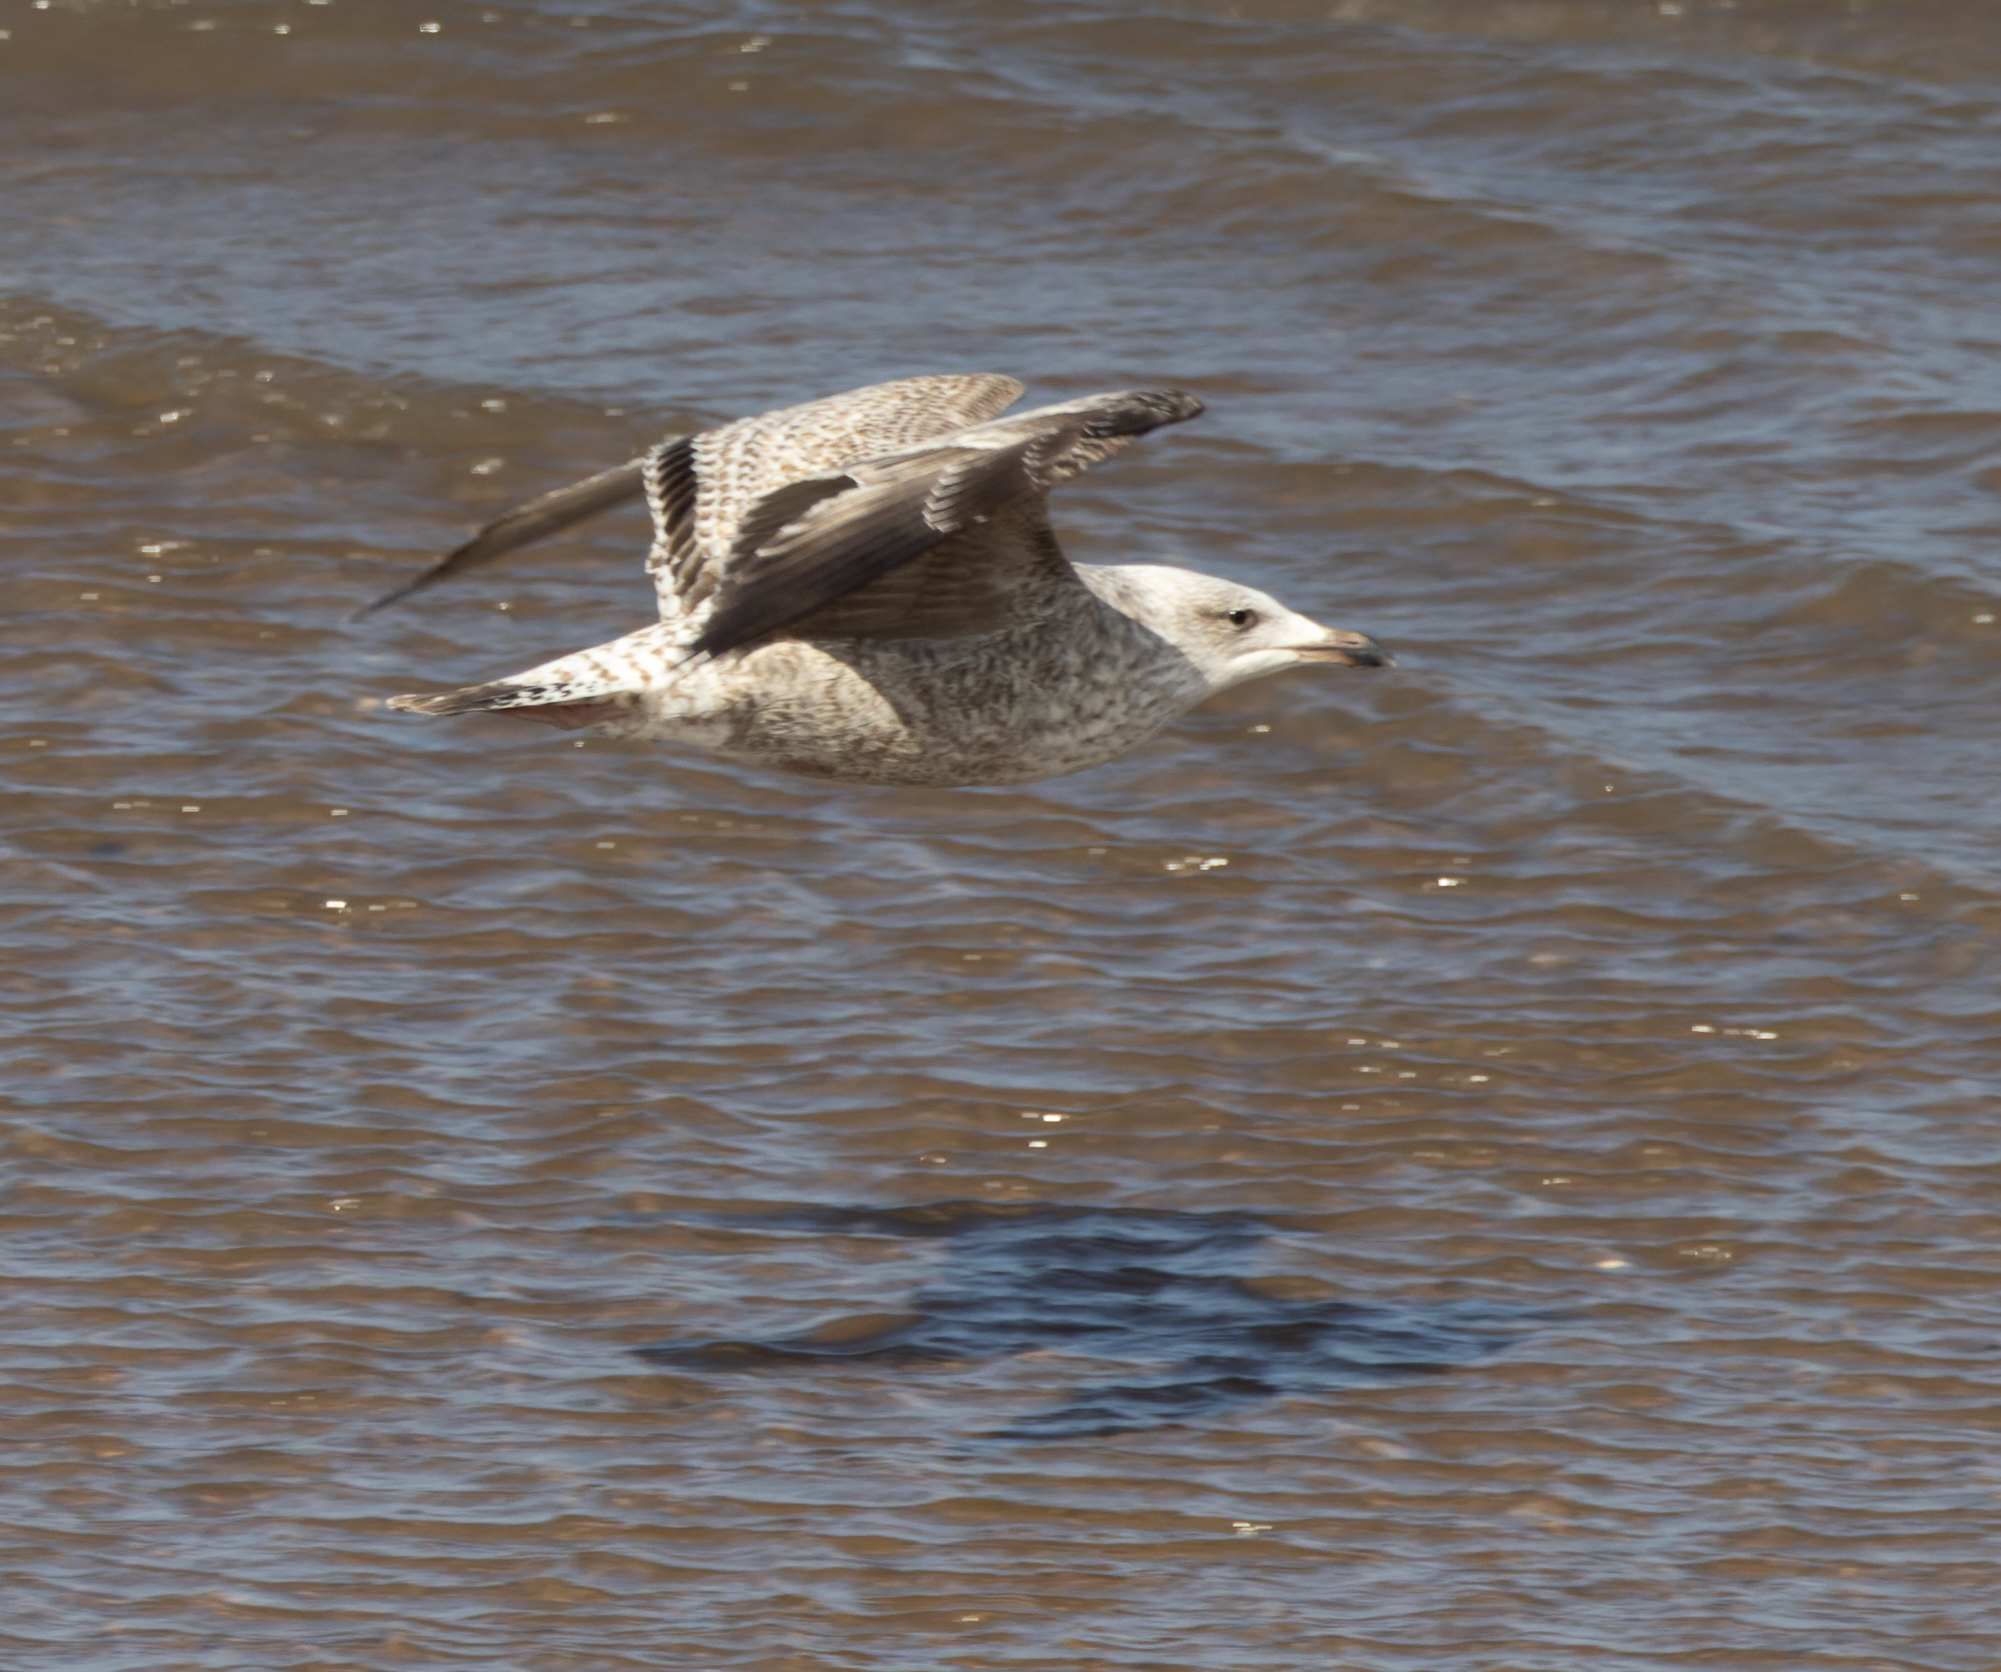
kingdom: Animalia
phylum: Chordata
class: Aves
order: Charadriiformes
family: Laridae
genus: Larus
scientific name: Larus argentatus
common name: Herring gull
